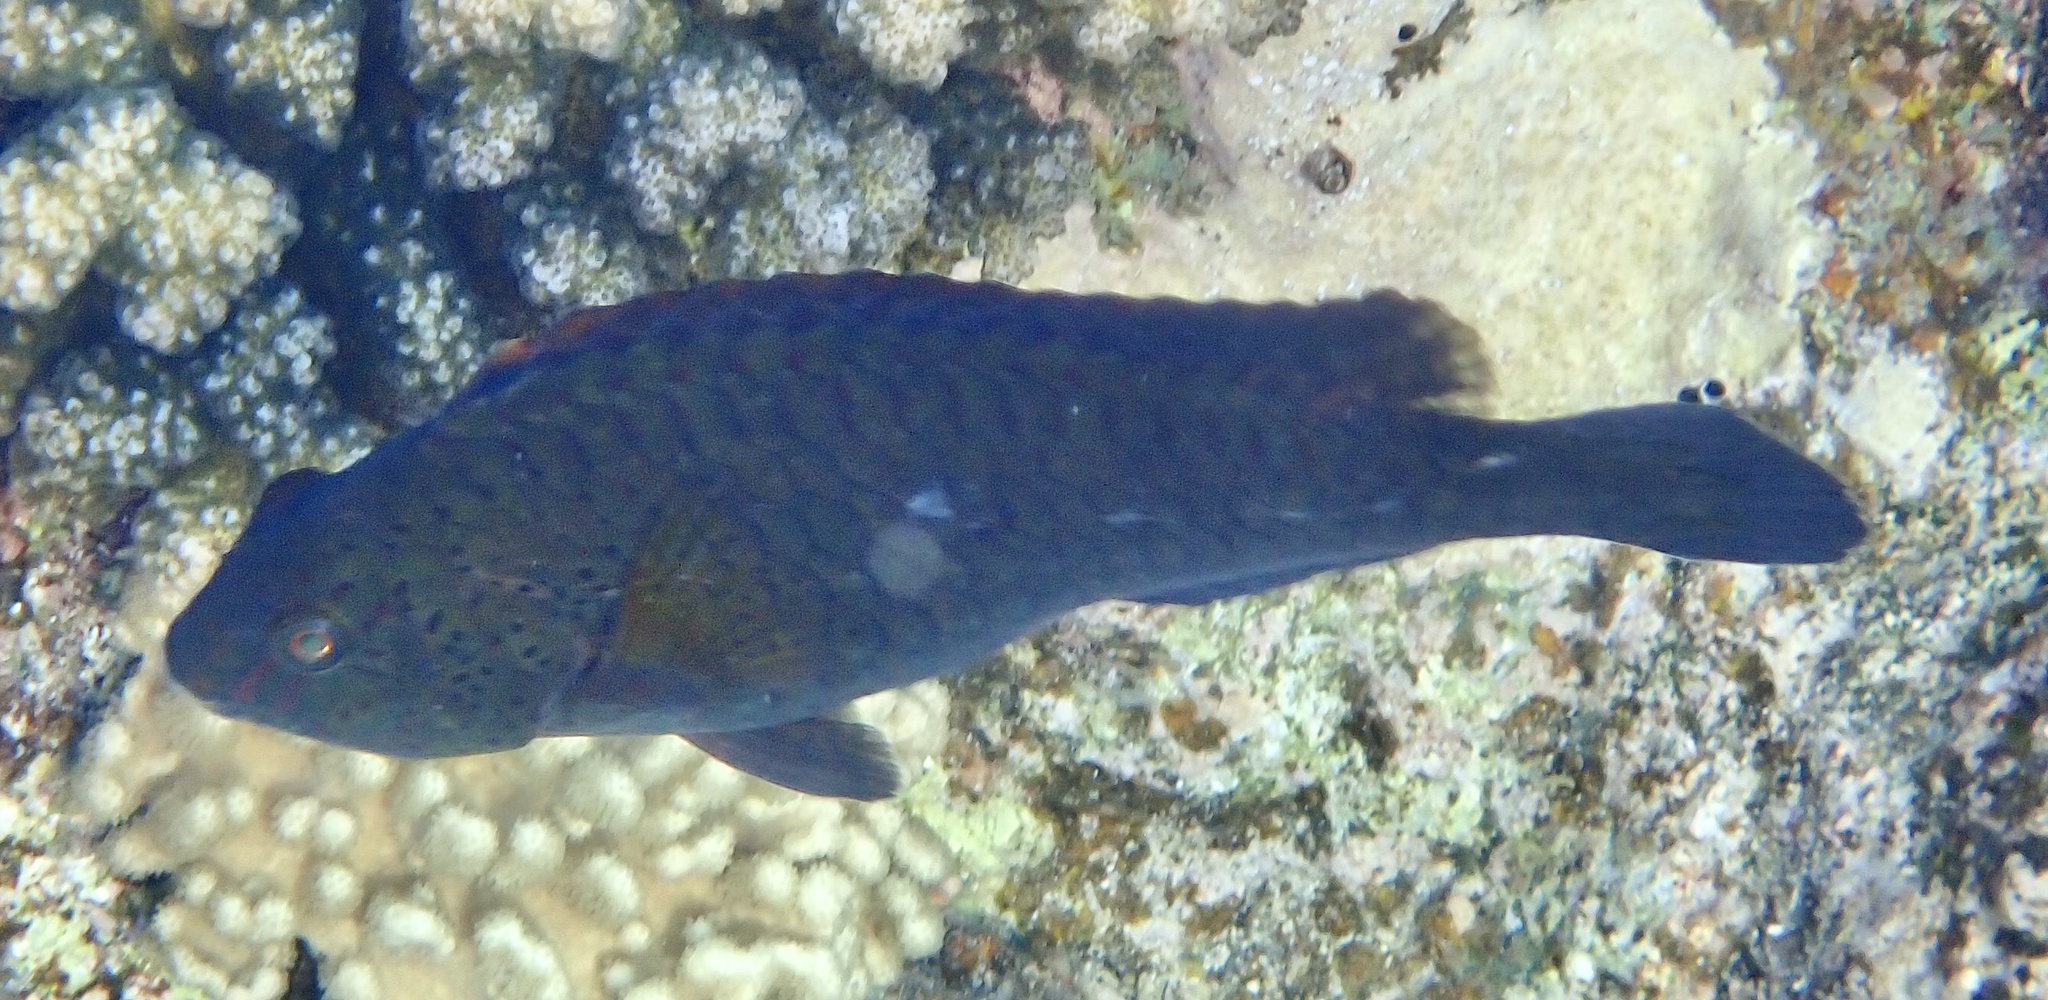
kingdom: Animalia
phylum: Chordata
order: Perciformes
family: Scaridae
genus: Calotomus
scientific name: Calotomus viridescens
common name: Dotted parrotfish
